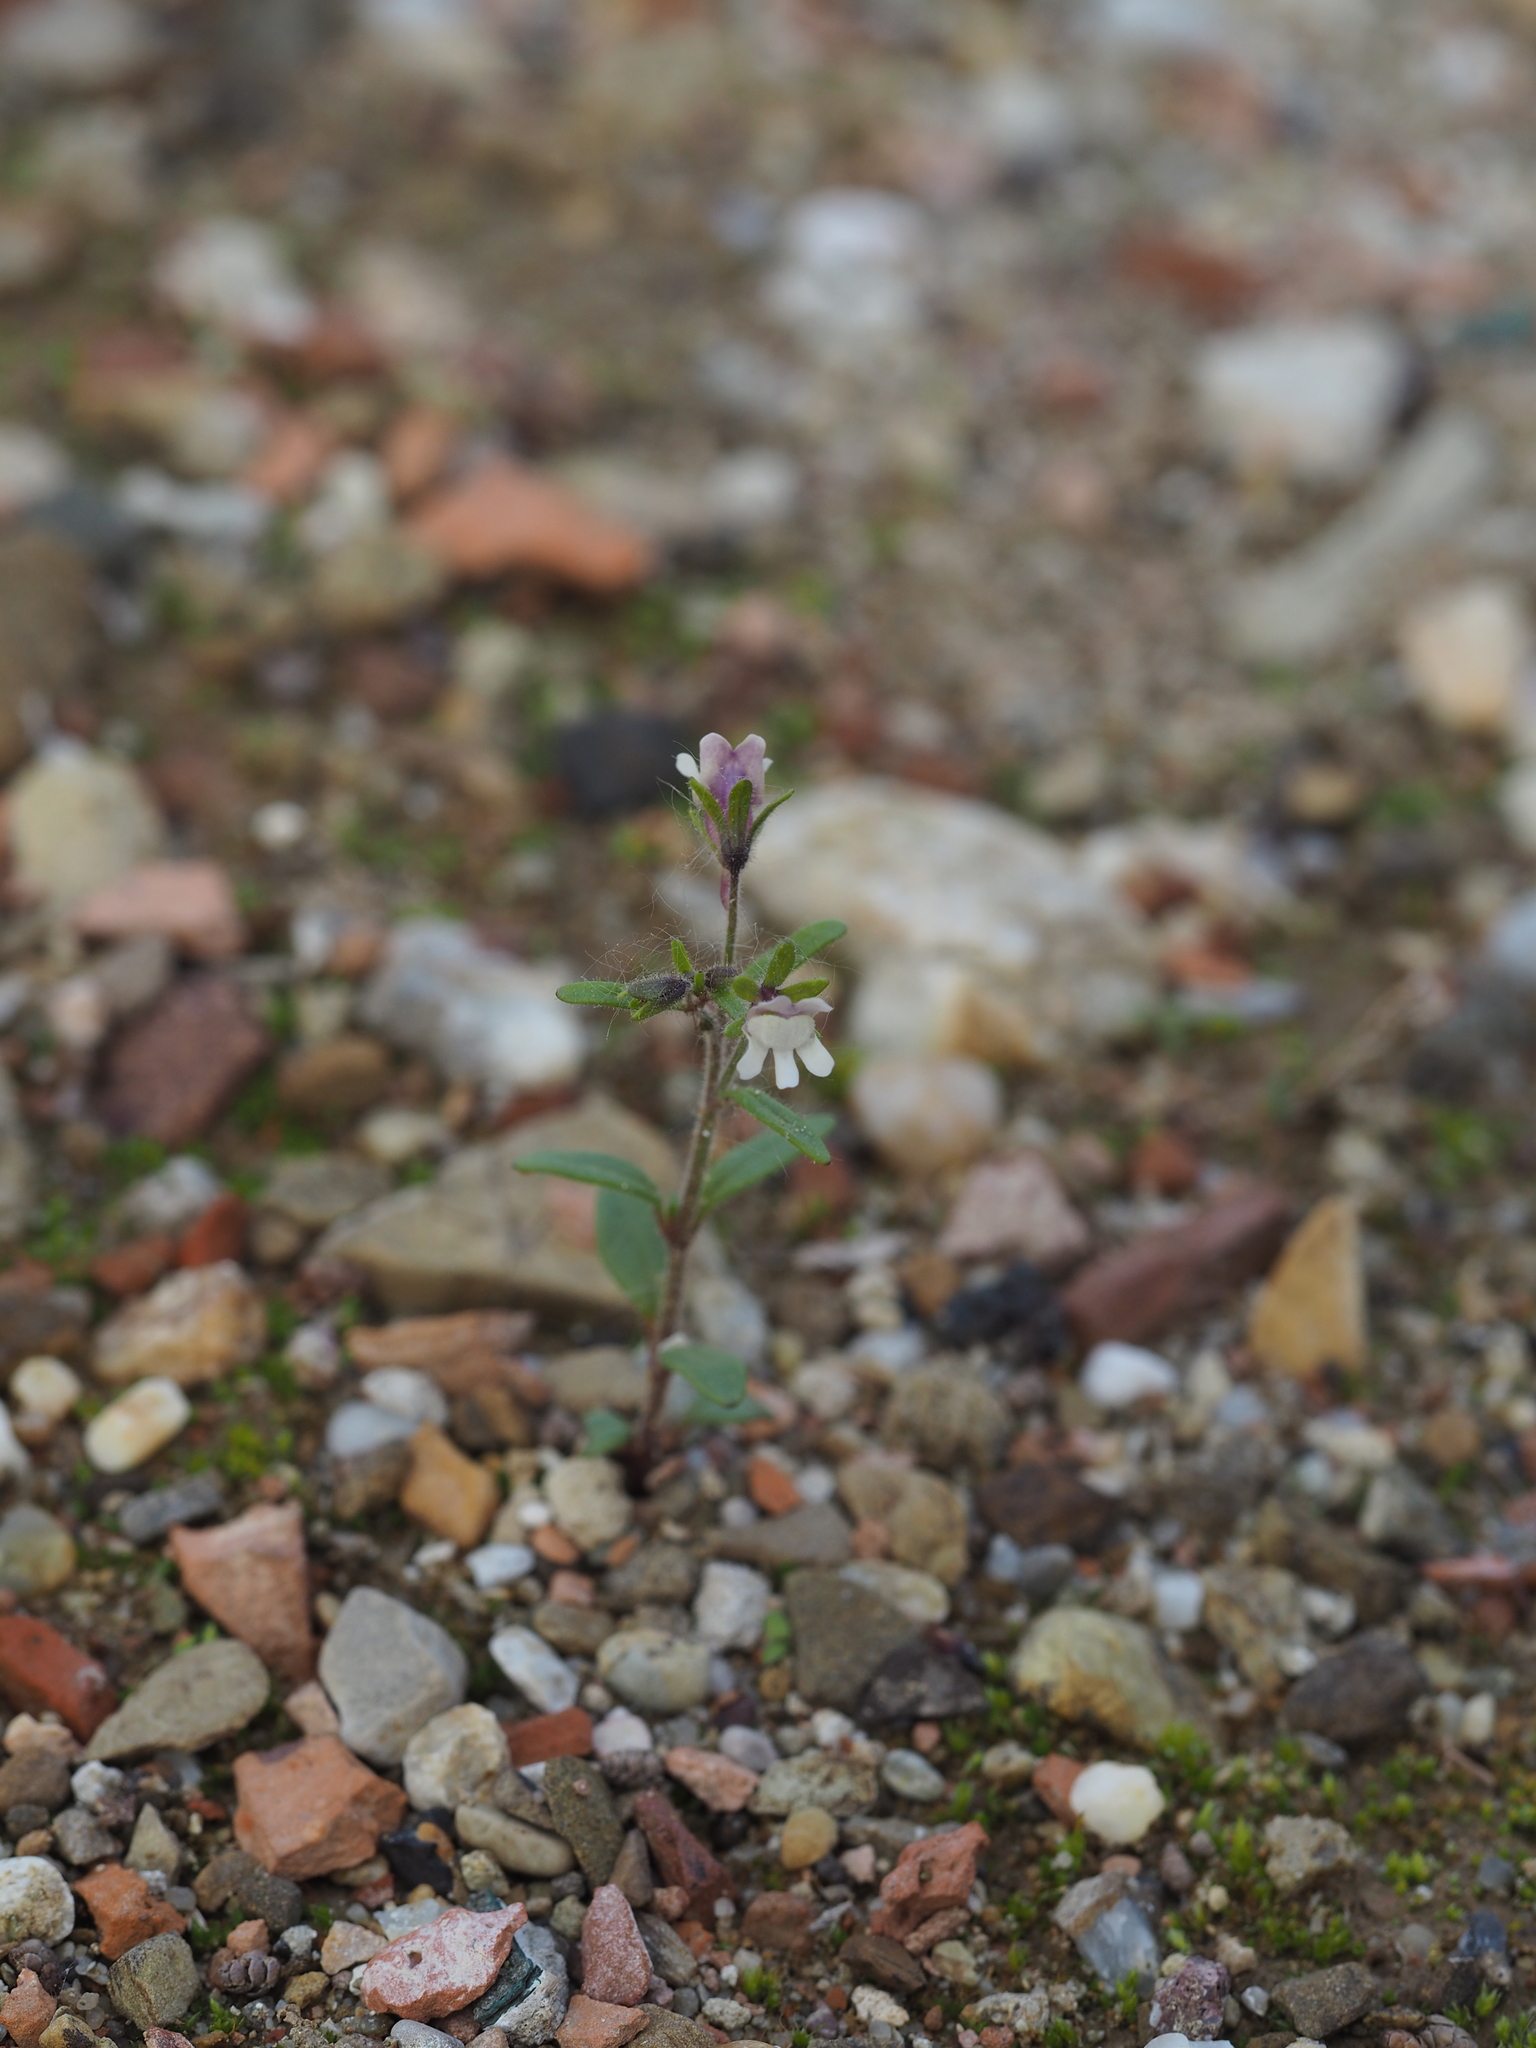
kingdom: Plantae
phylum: Tracheophyta
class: Magnoliopsida
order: Lamiales
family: Plantaginaceae
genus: Chaenorhinum
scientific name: Chaenorhinum minus
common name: Dwarf snapdragon
